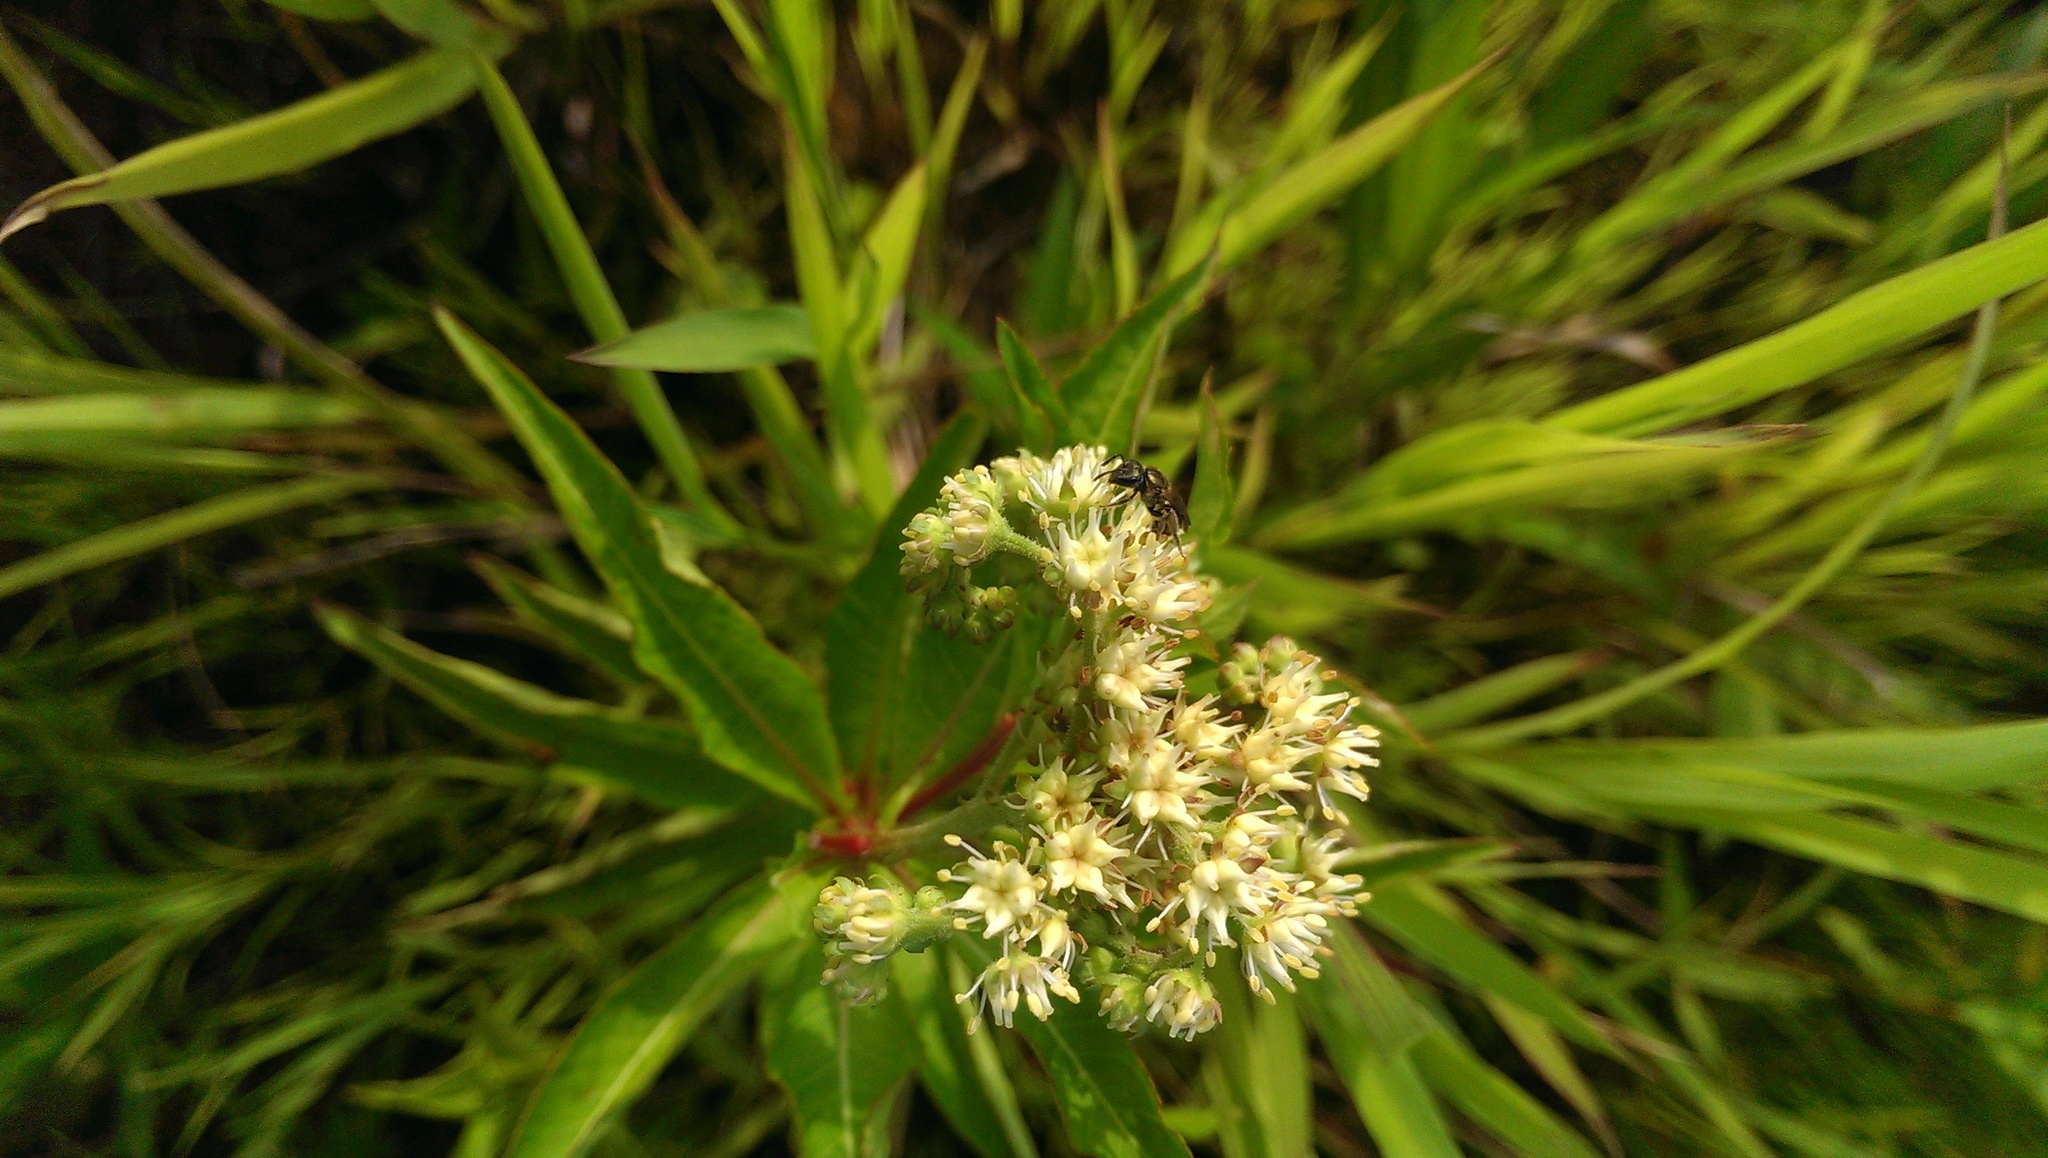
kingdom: Plantae
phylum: Tracheophyta
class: Magnoliopsida
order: Saxifragales
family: Penthoraceae
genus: Penthorum
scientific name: Penthorum sedoides
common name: Ditch stonecrop
